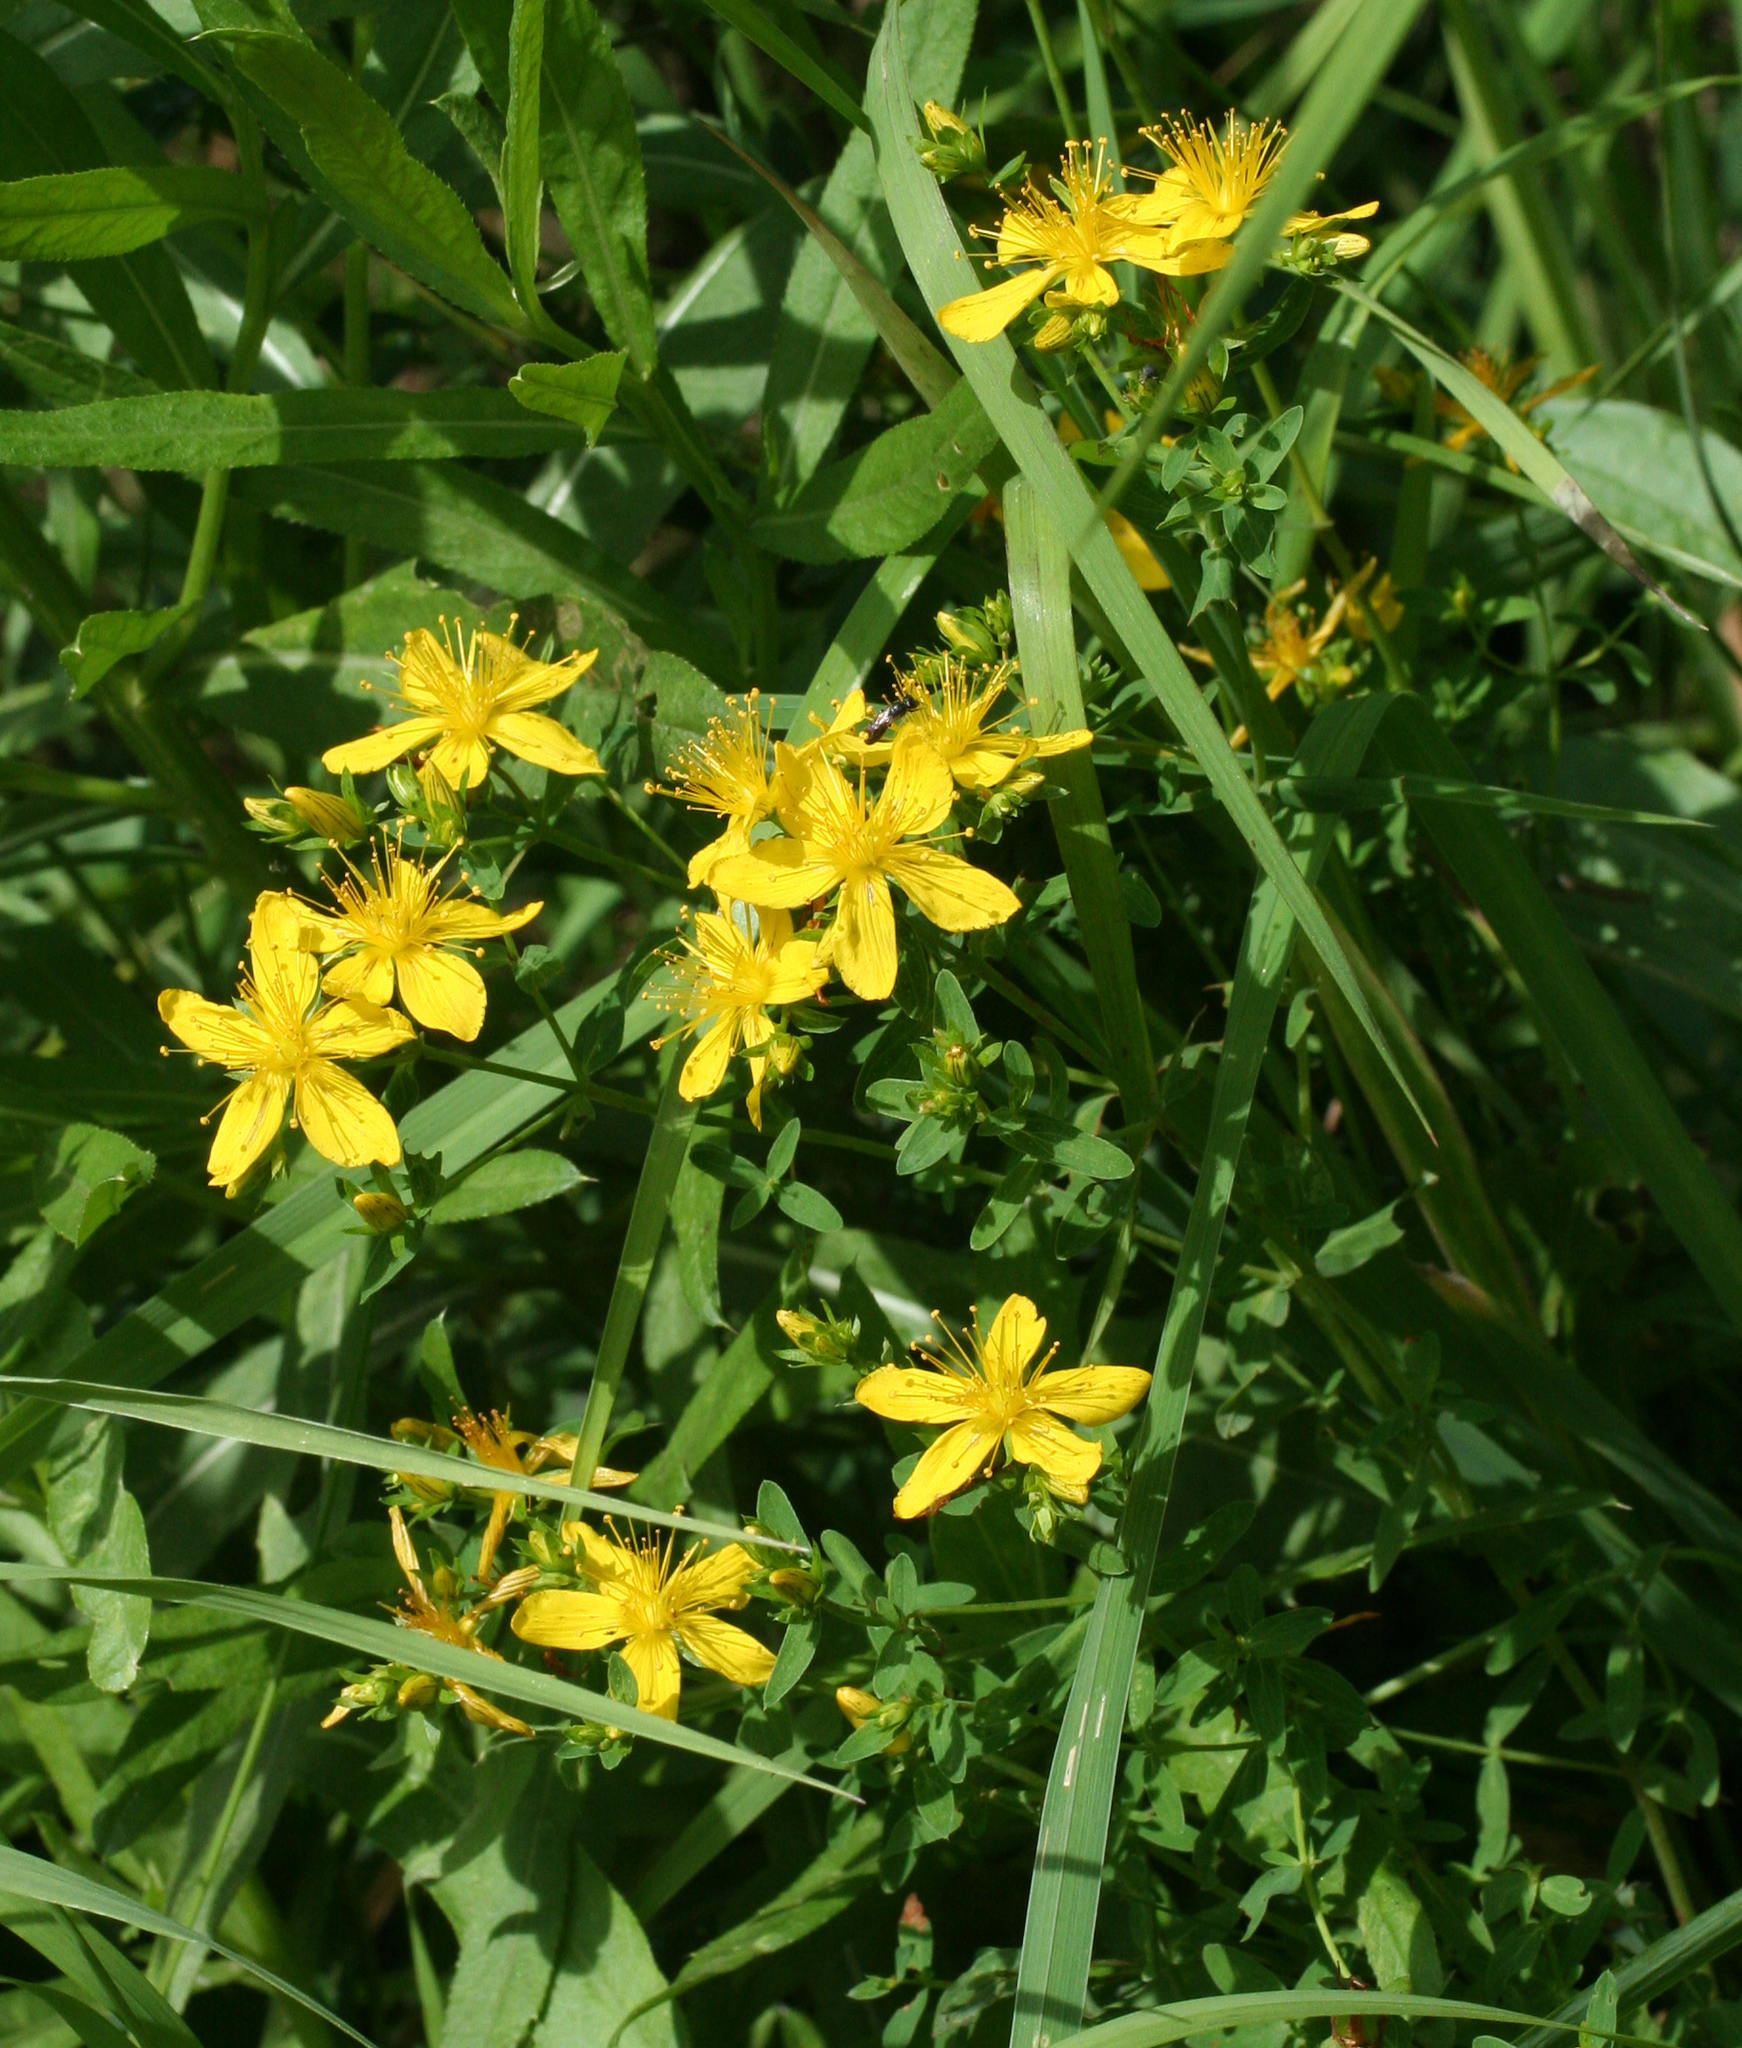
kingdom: Plantae
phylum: Tracheophyta
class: Magnoliopsida
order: Malpighiales
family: Hypericaceae
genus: Hypericum
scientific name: Hypericum perforatum
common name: Common st. johnswort
